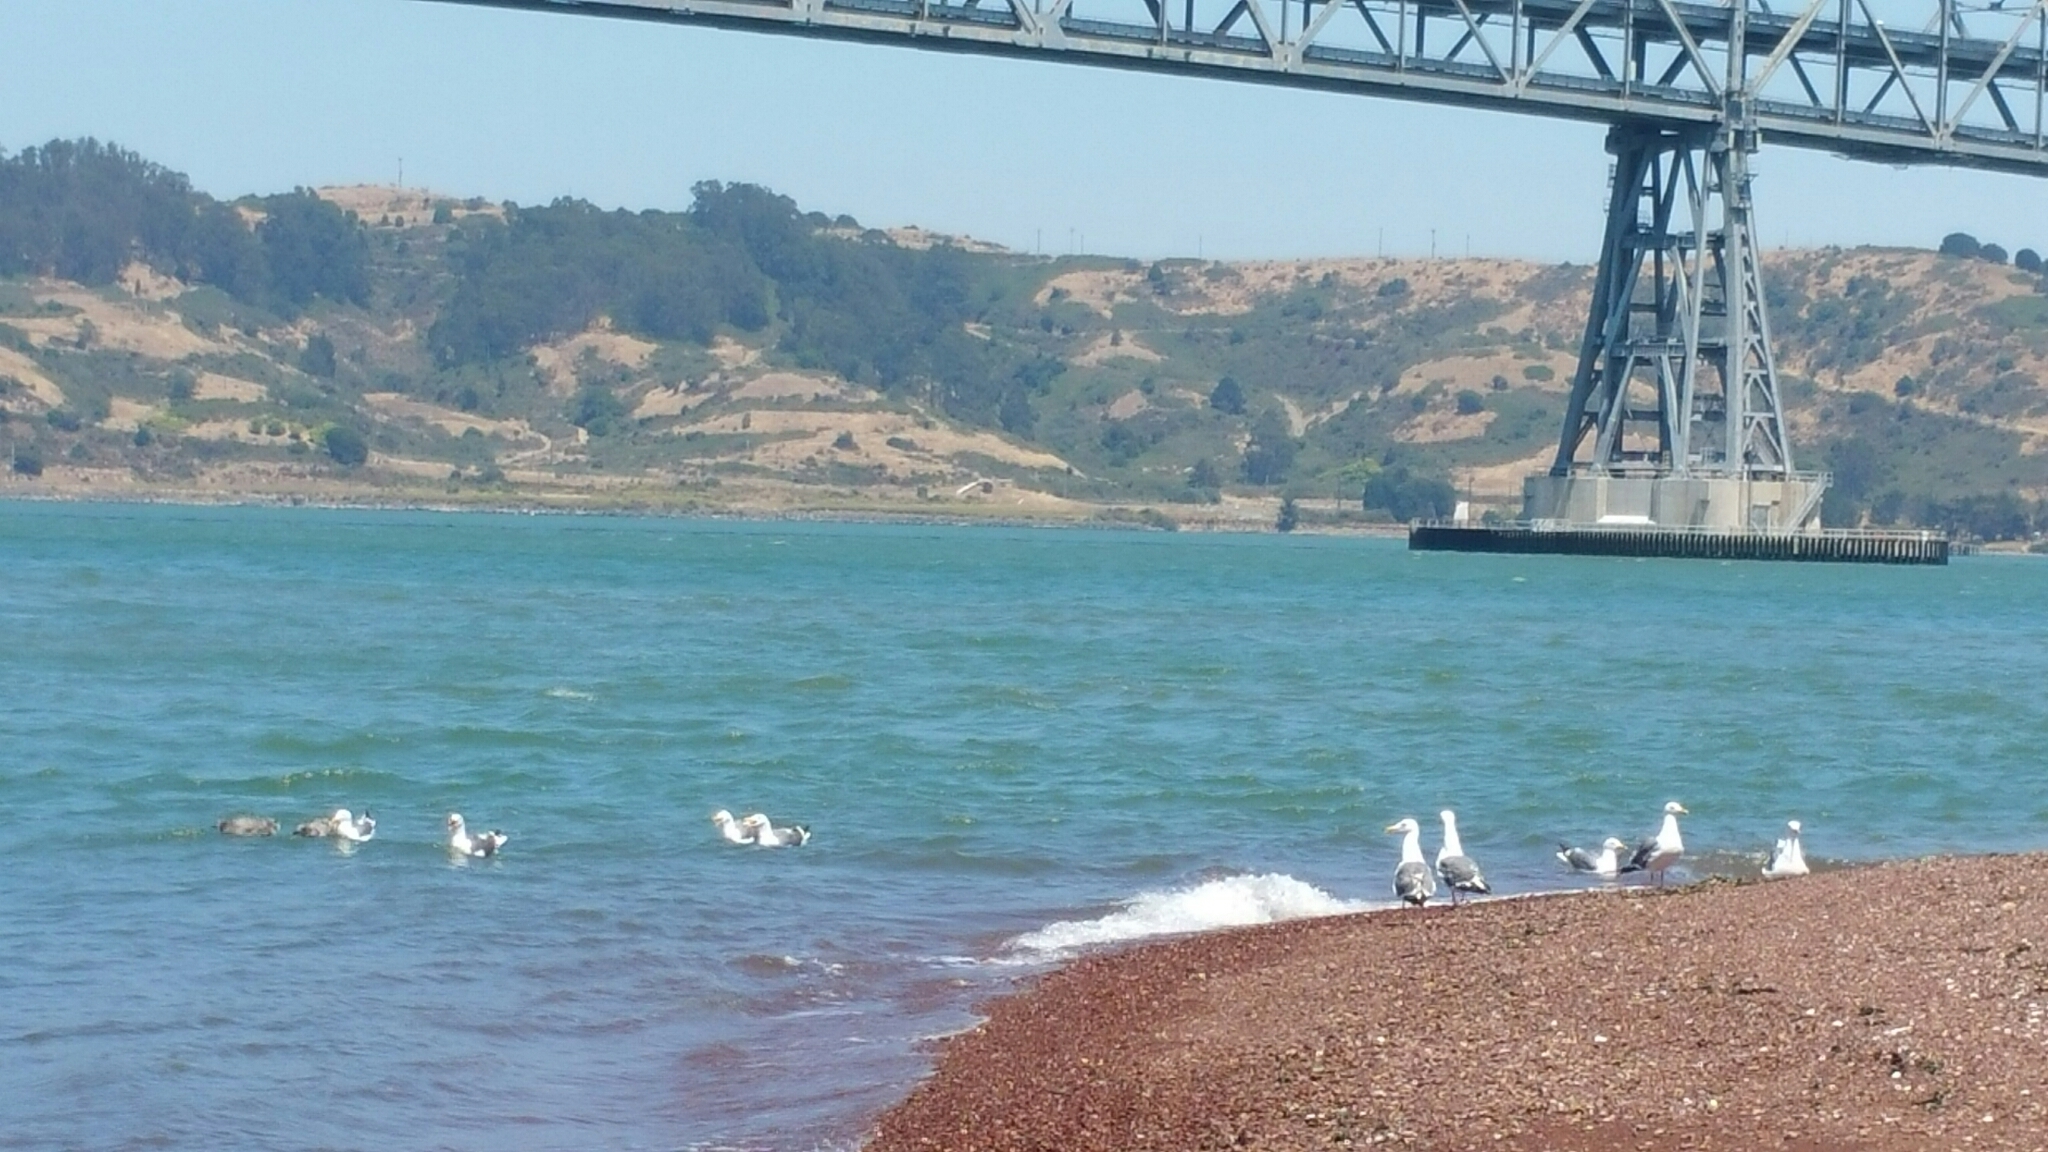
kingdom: Animalia
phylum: Chordata
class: Aves
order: Charadriiformes
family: Laridae
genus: Larus
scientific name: Larus occidentalis
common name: Western gull
